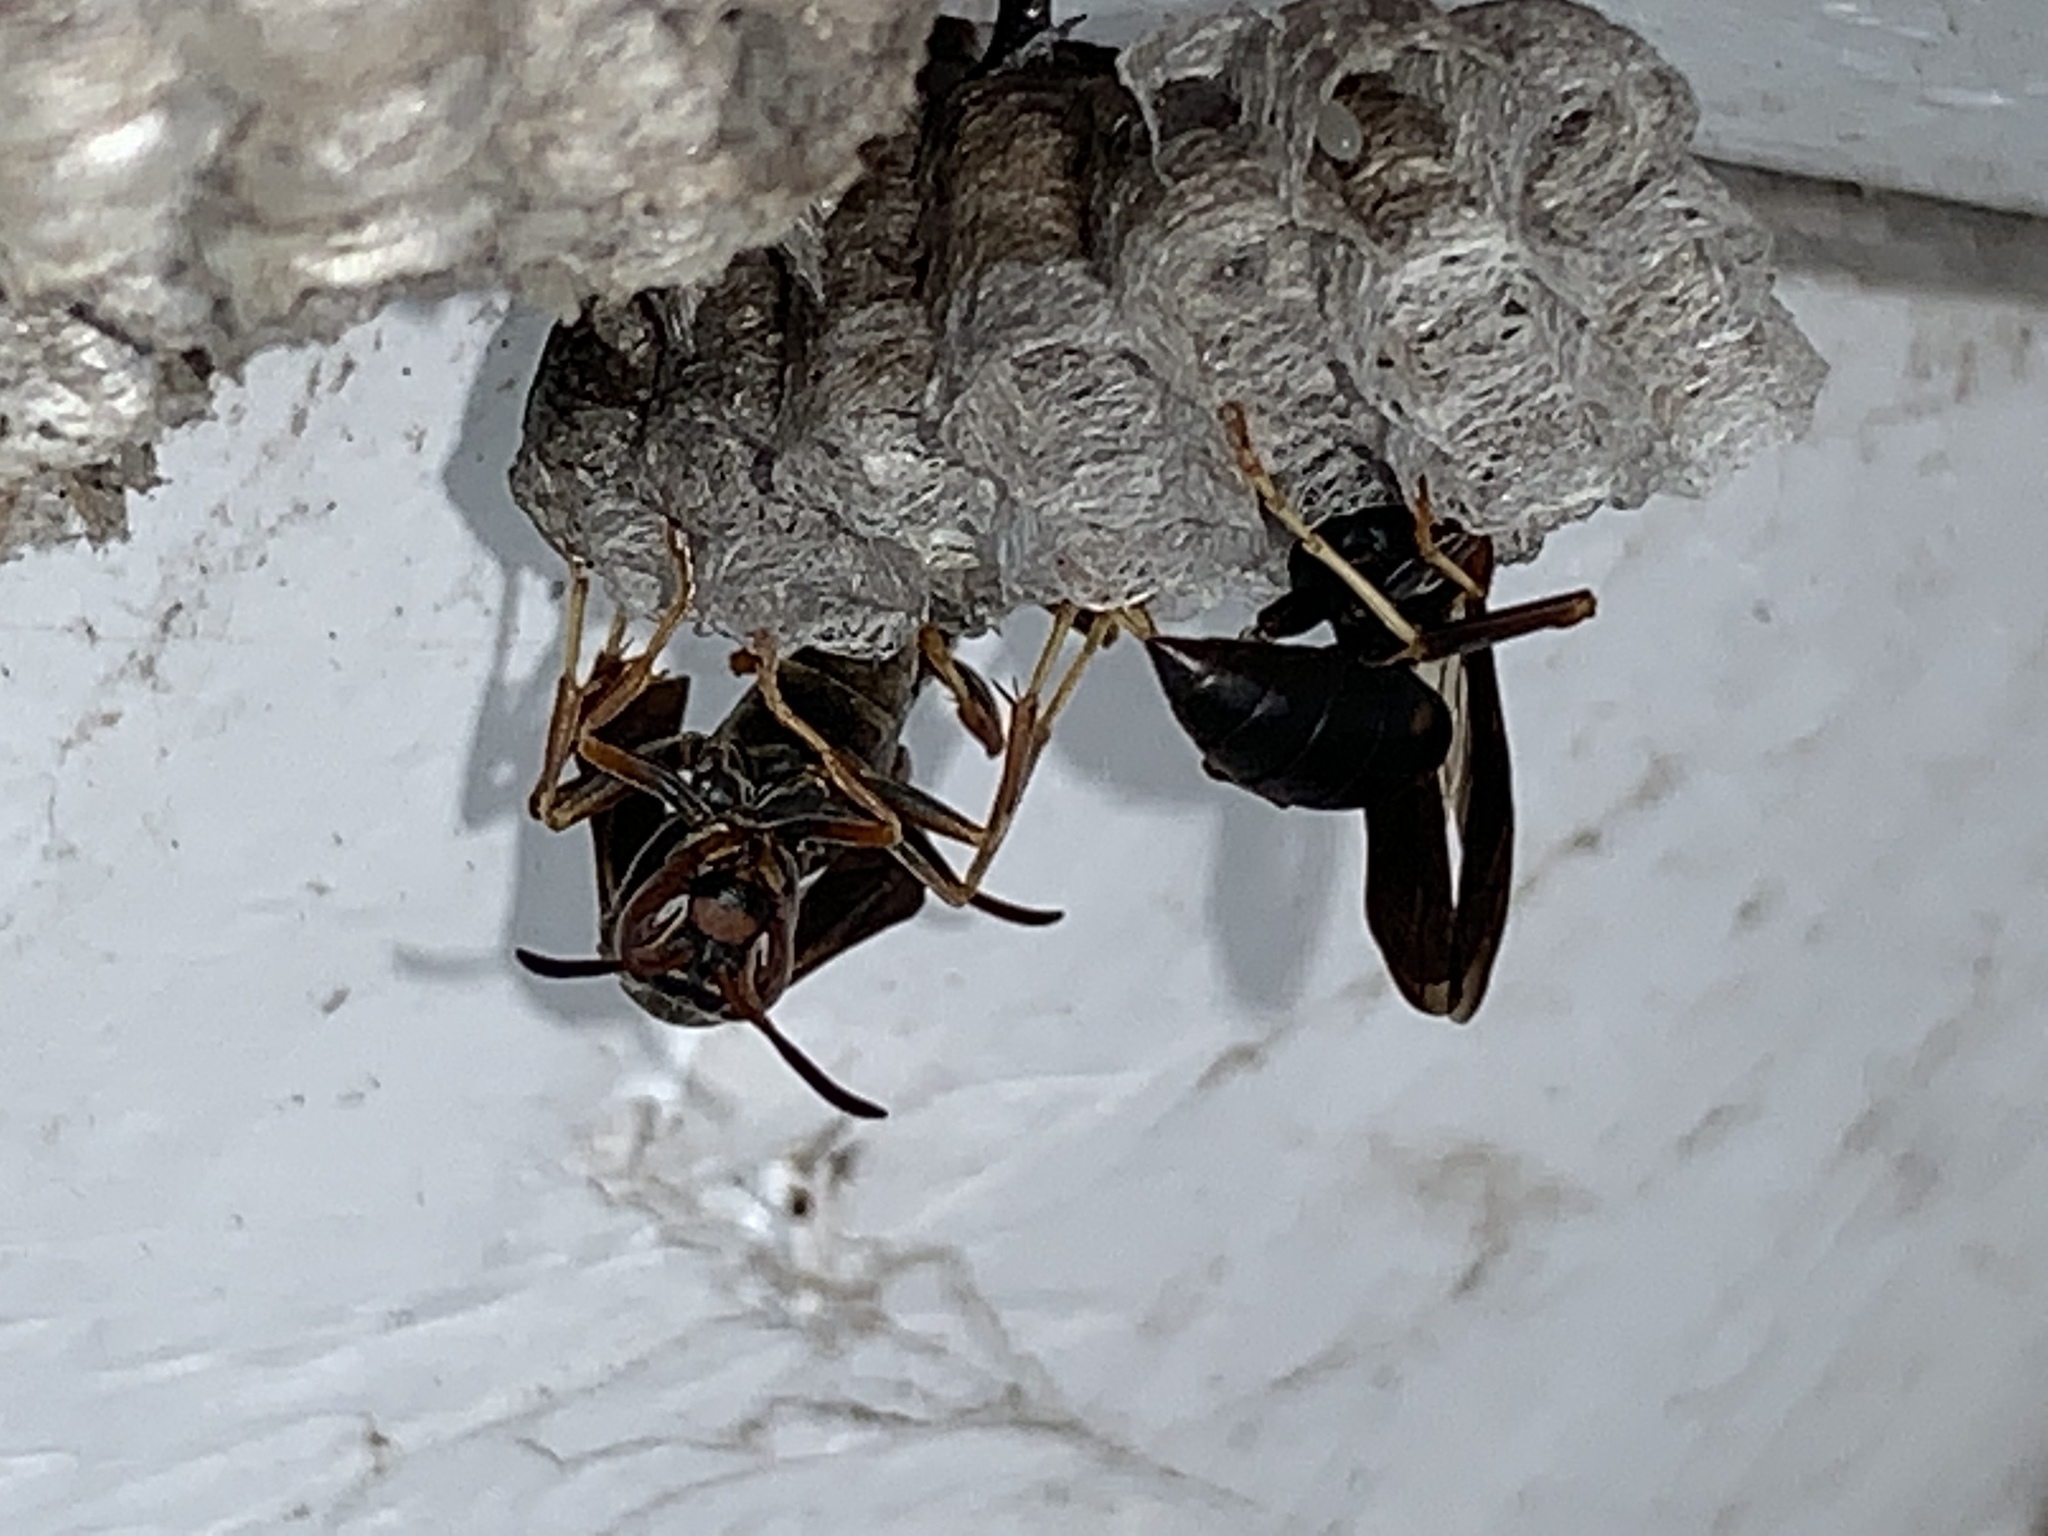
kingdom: Animalia
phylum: Arthropoda
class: Insecta
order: Hymenoptera
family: Eumenidae
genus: Polistes
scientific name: Polistes fuscatus
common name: Dark paper wasp
